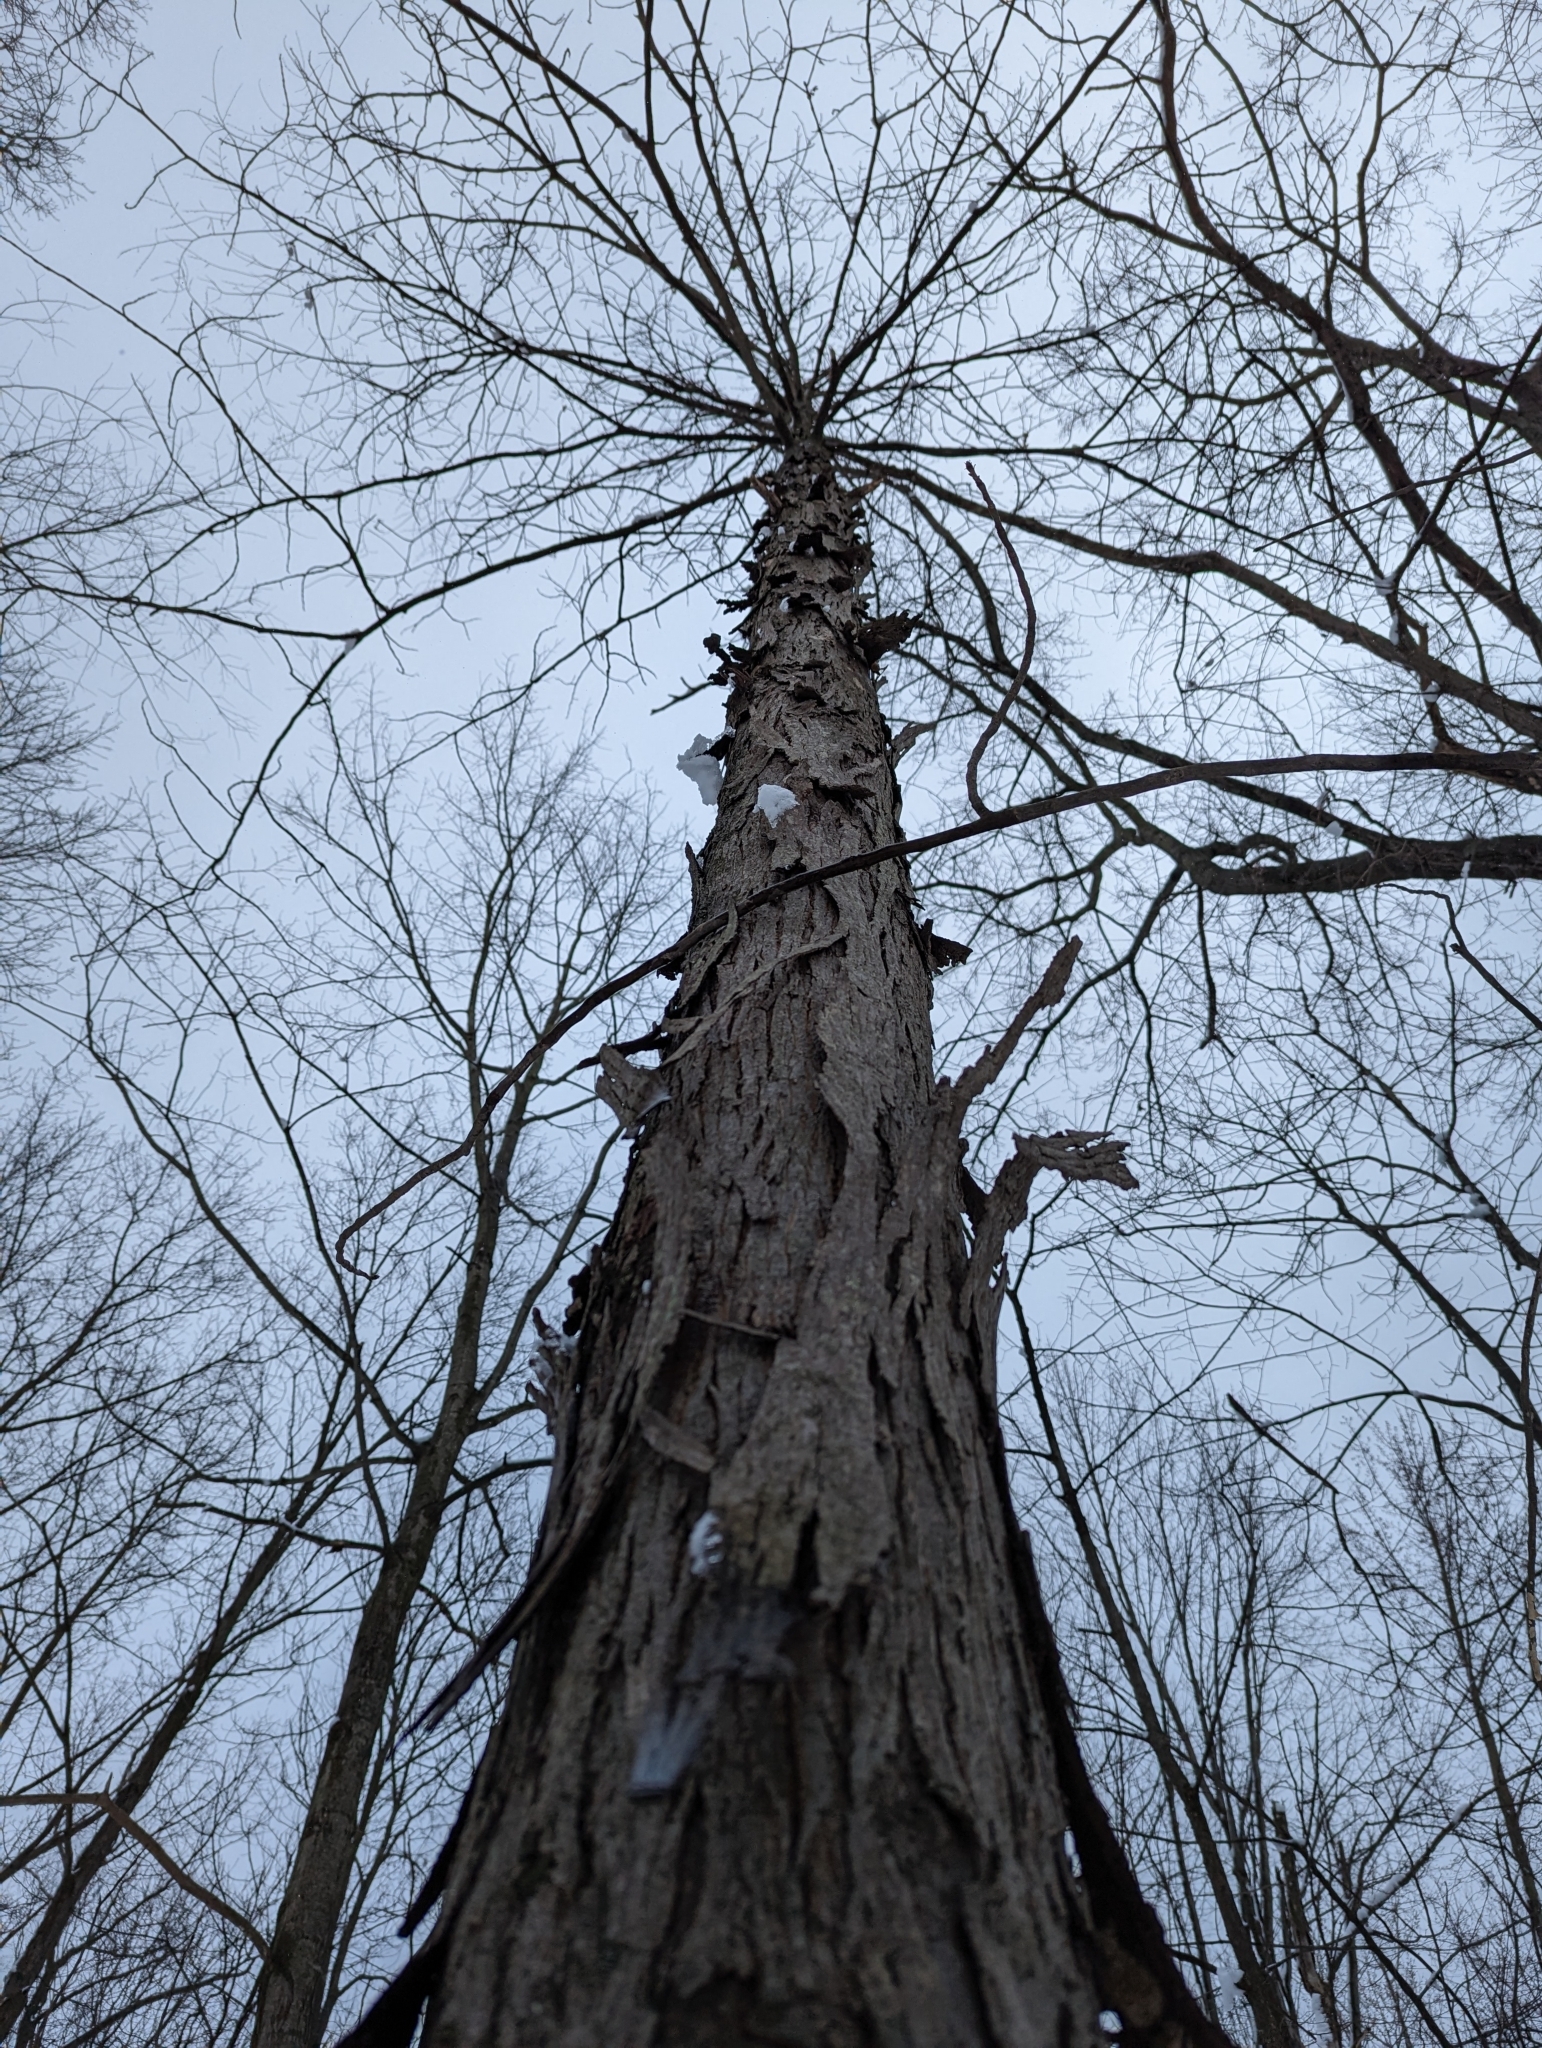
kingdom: Plantae
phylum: Tracheophyta
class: Magnoliopsida
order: Fagales
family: Juglandaceae
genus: Carya
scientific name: Carya ovata
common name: Shagbark hickory
